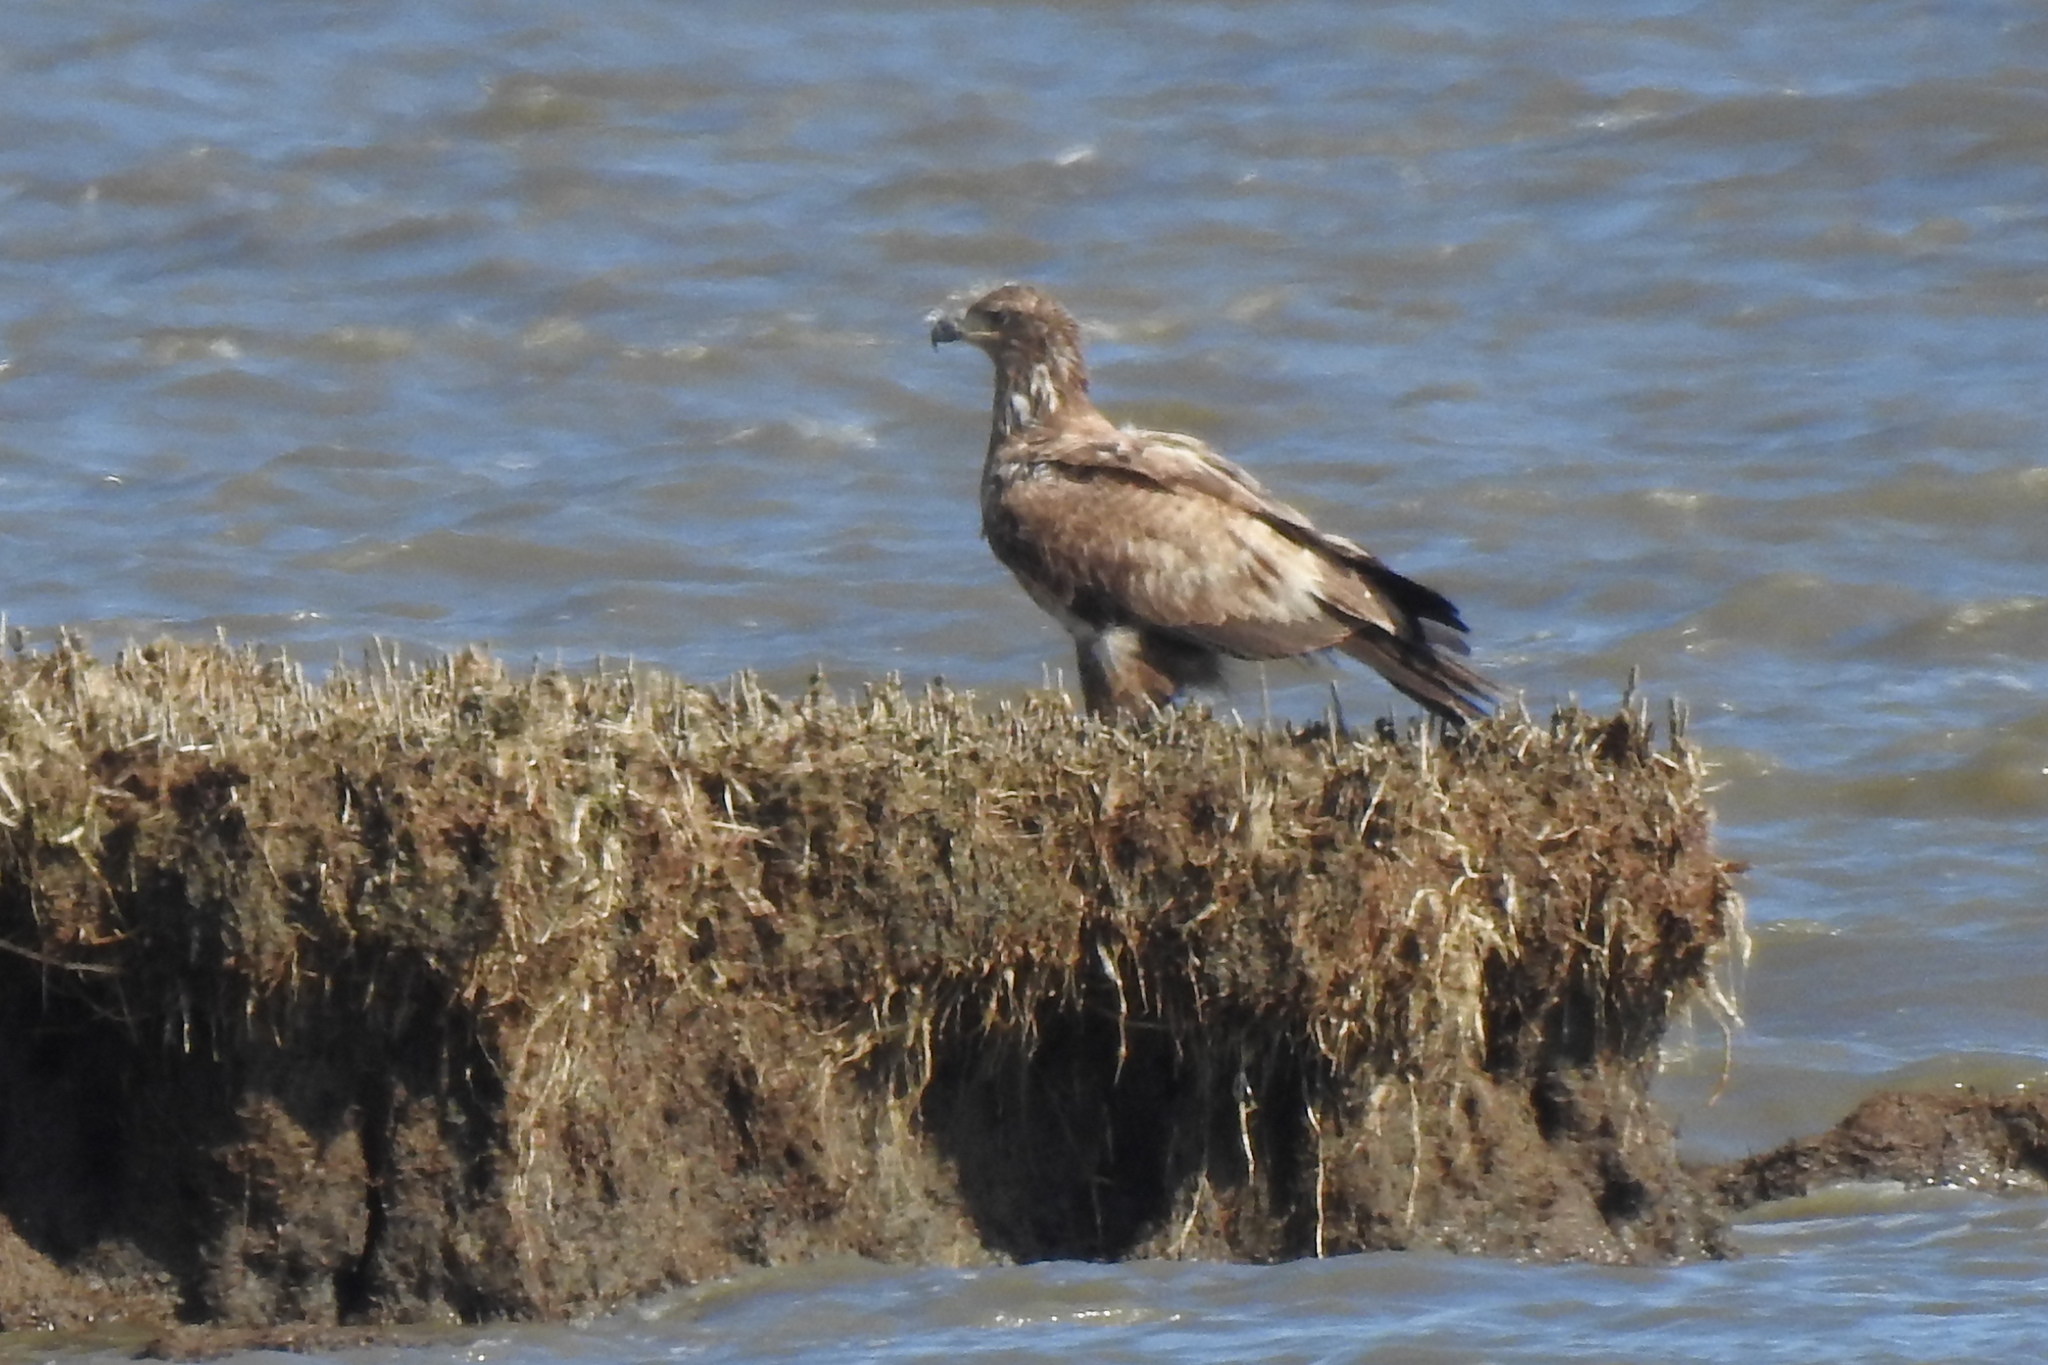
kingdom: Animalia
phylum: Chordata
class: Aves
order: Accipitriformes
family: Accipitridae
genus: Haliaeetus
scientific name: Haliaeetus leucocephalus
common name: Bald eagle
